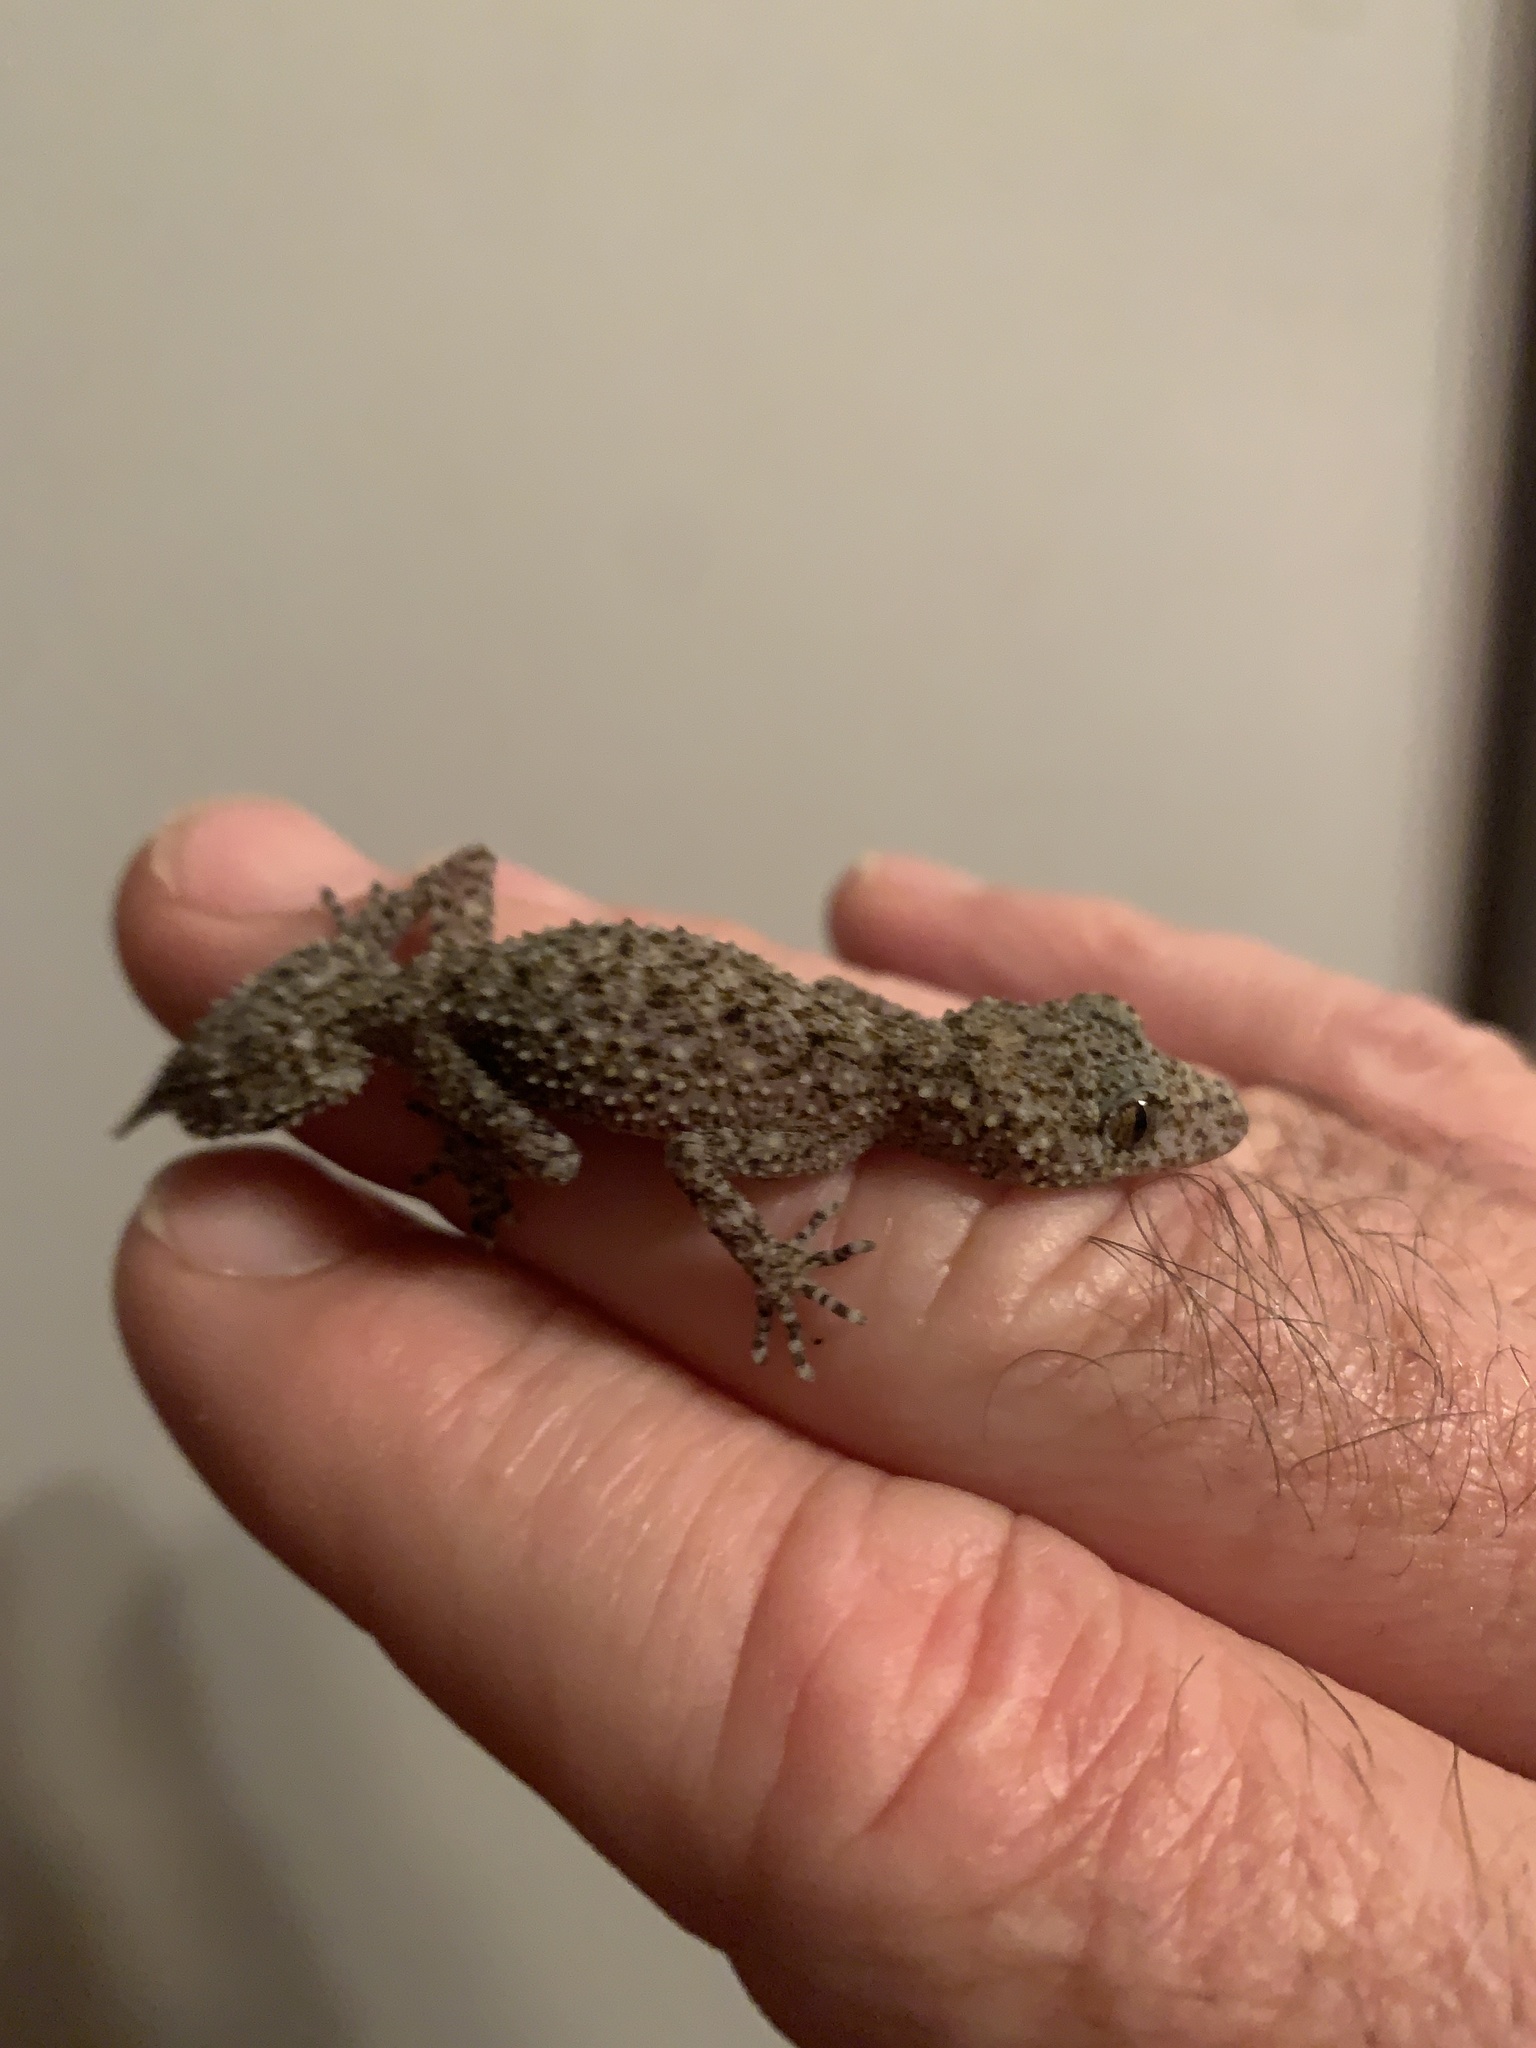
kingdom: Animalia
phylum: Chordata
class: Squamata
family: Carphodactylidae
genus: Phyllurus
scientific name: Phyllurus platurus
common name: Broad-tailed gecko
